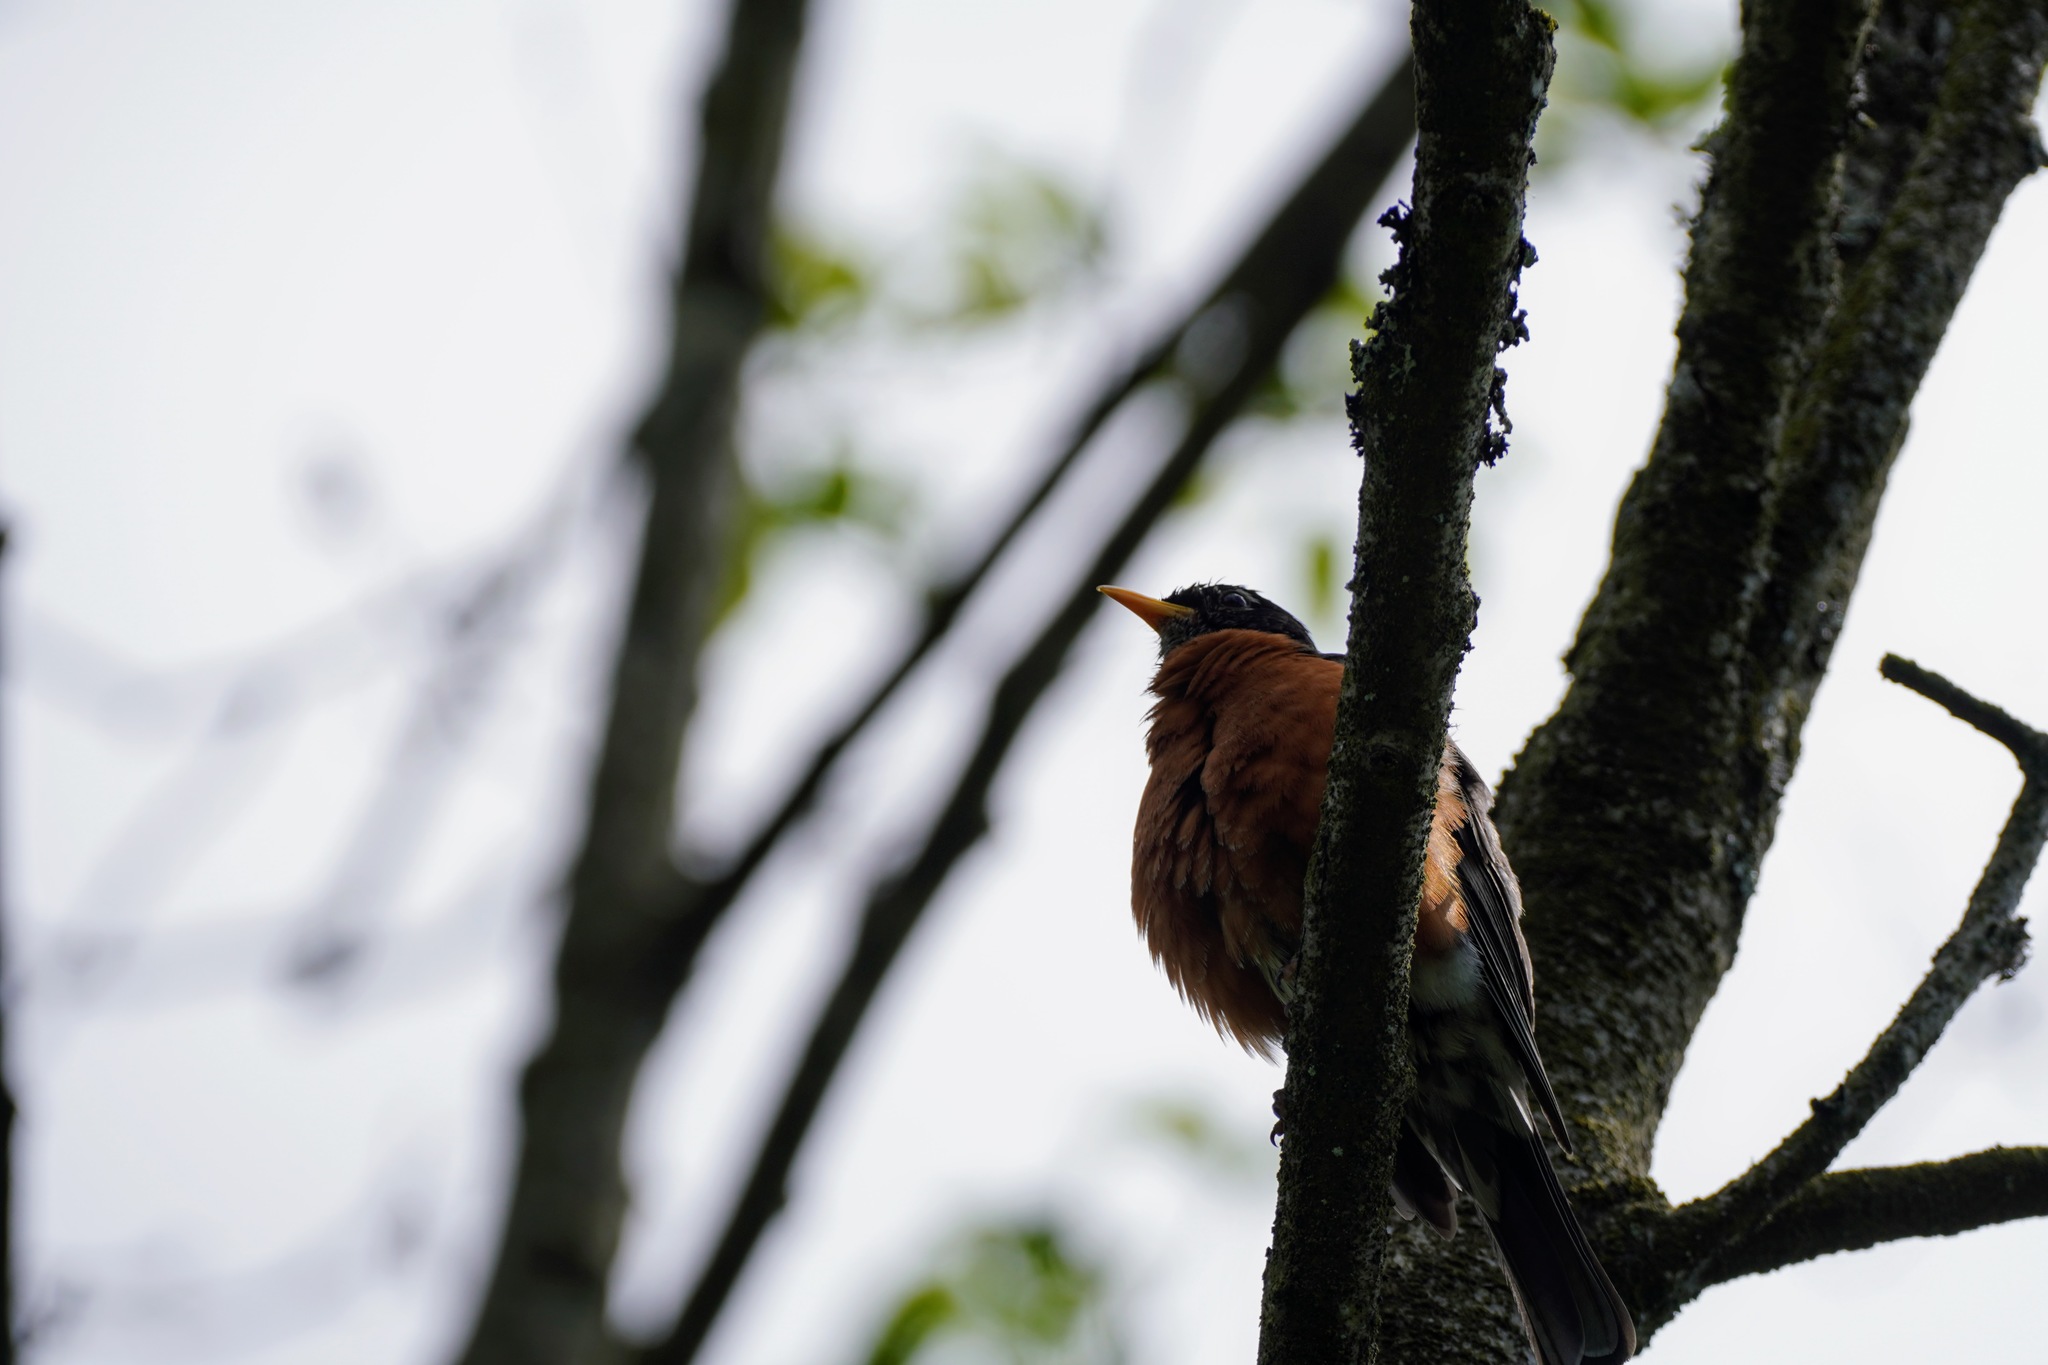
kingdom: Animalia
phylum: Chordata
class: Aves
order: Passeriformes
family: Turdidae
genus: Turdus
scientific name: Turdus migratorius
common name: American robin
